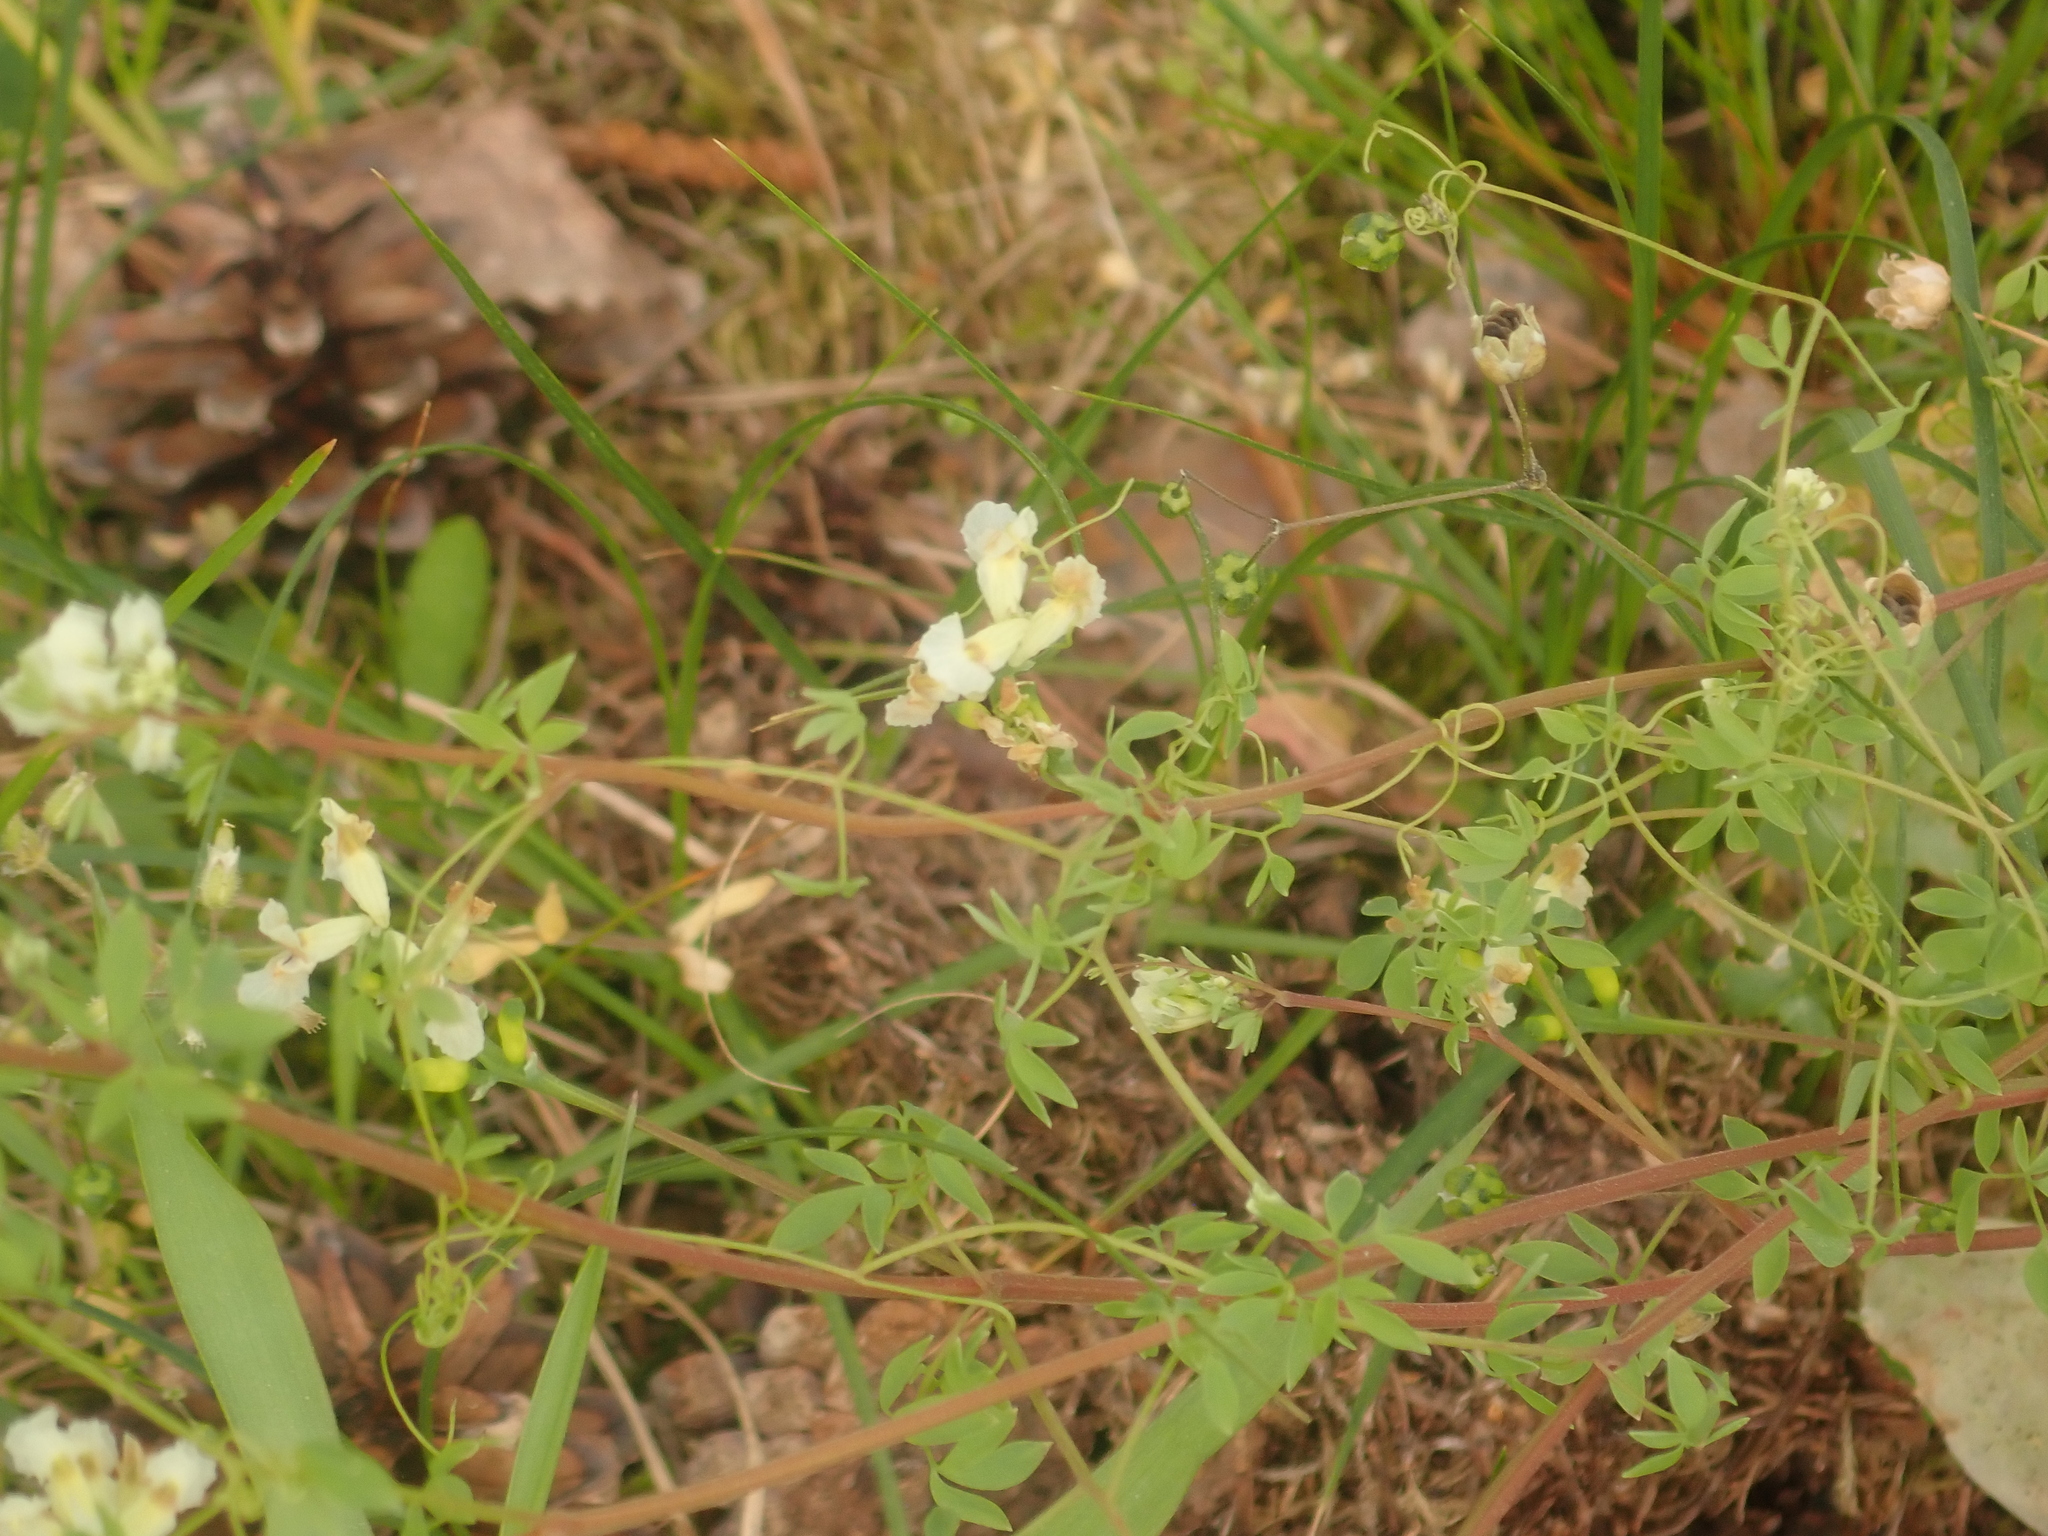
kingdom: Plantae
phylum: Tracheophyta
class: Magnoliopsida
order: Ranunculales
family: Papaveraceae
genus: Ceratocapnos
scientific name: Ceratocapnos claviculata
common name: Climbing corydalis
